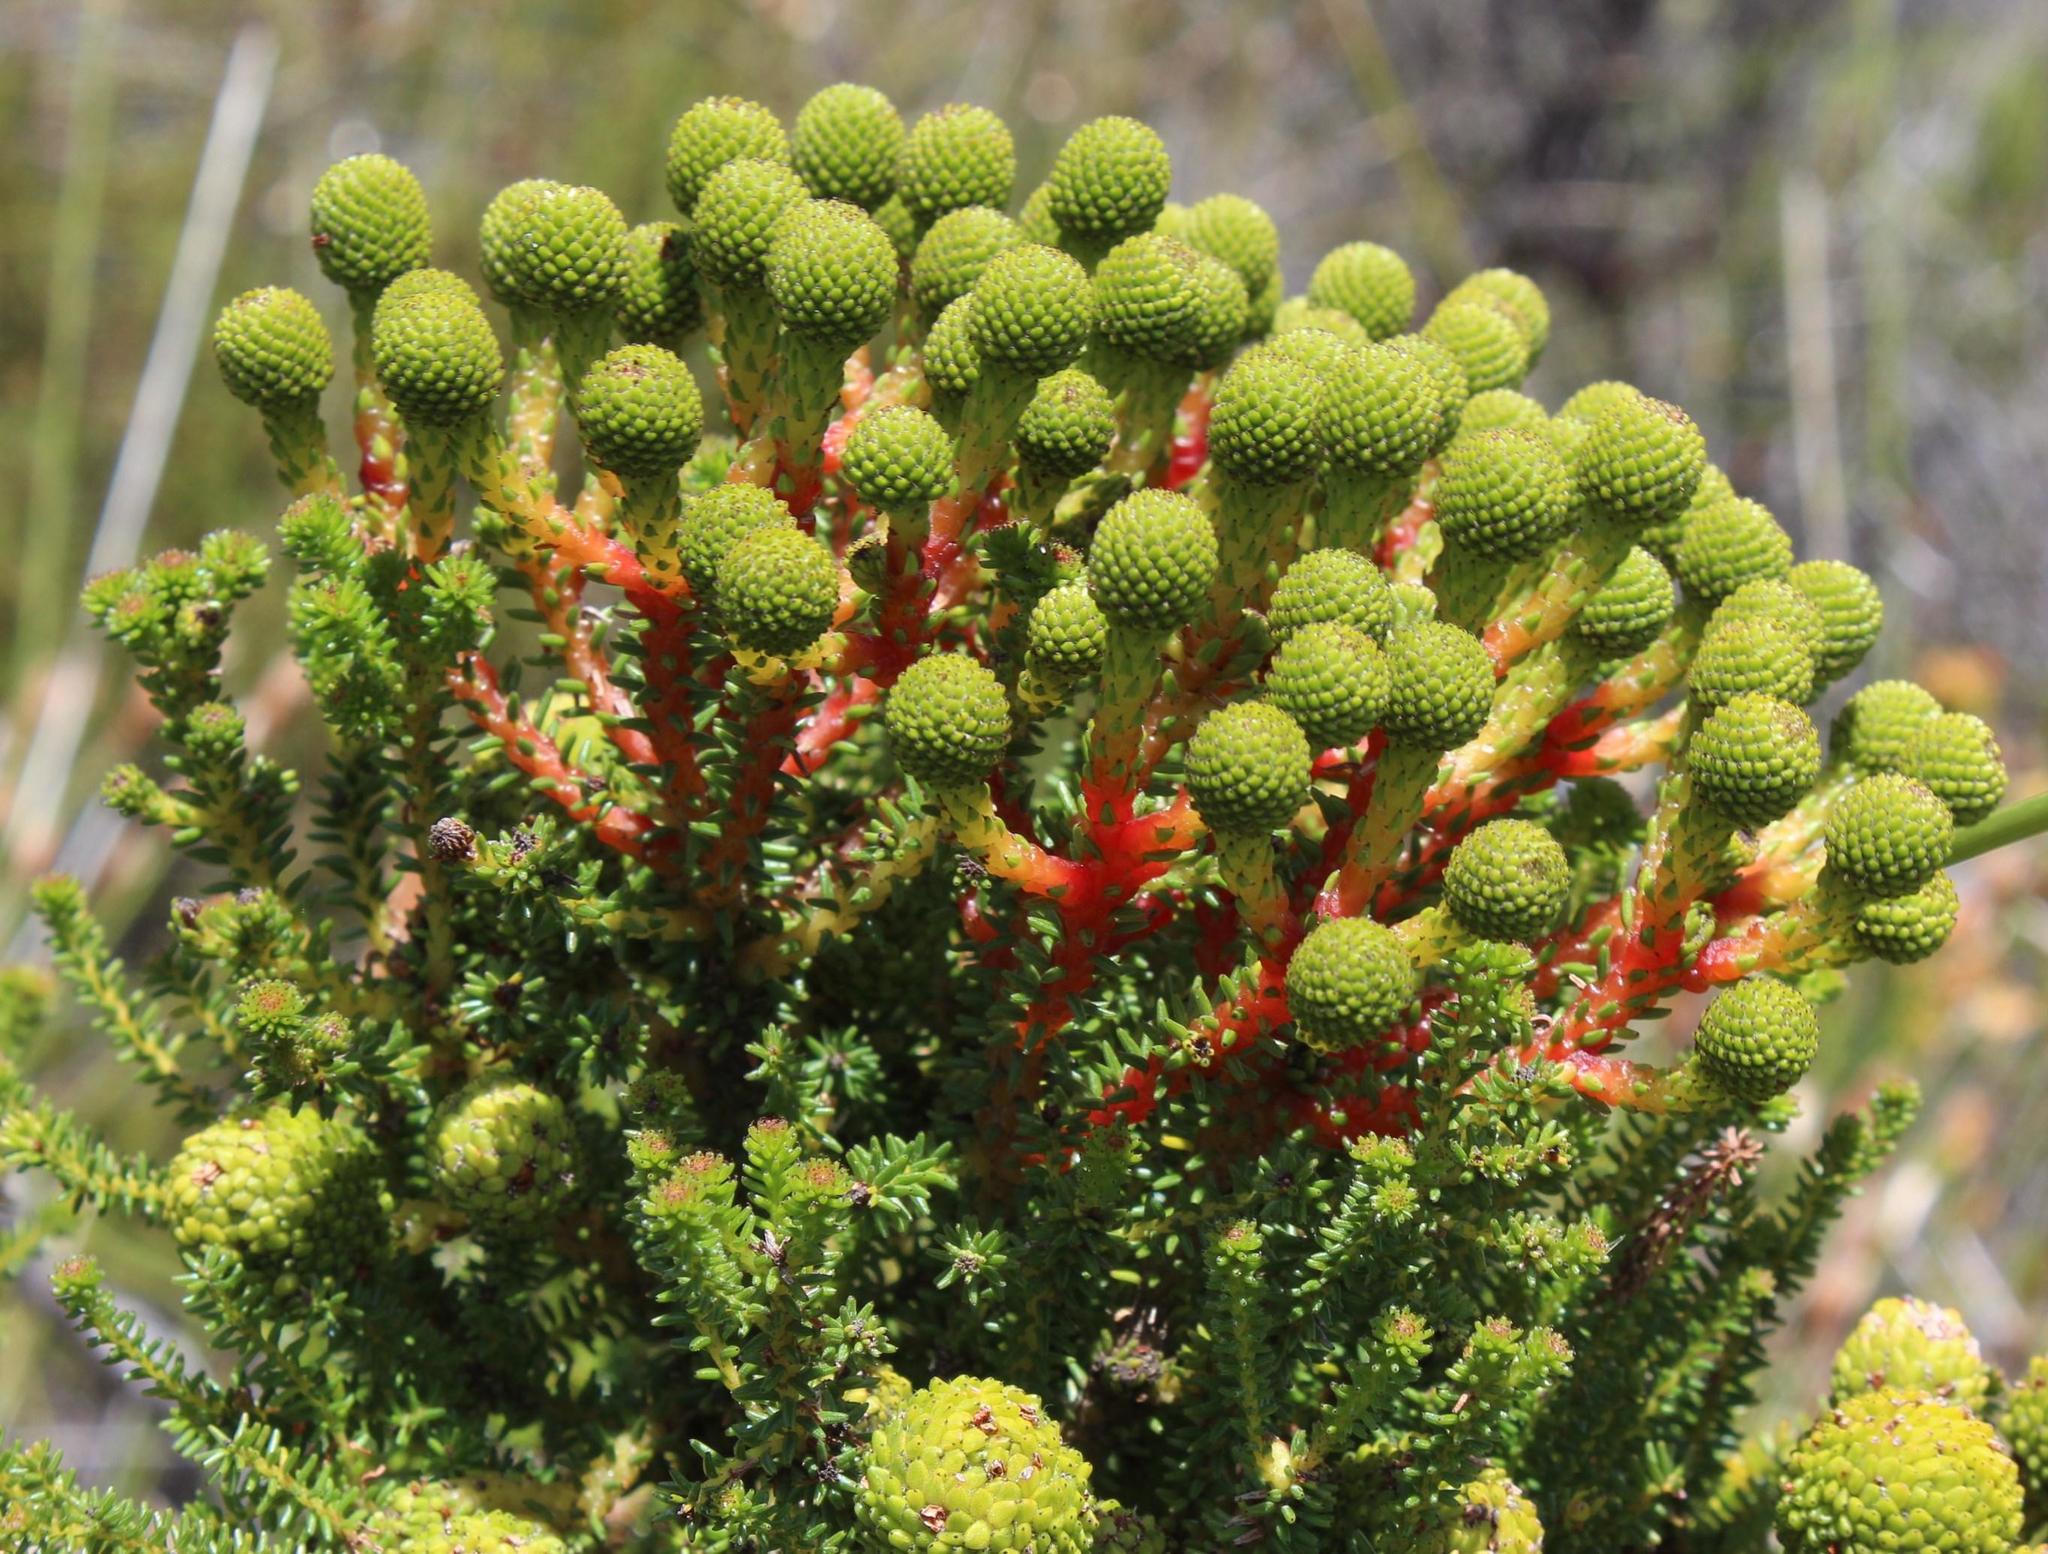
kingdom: Plantae
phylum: Tracheophyta
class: Magnoliopsida
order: Bruniales
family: Bruniaceae
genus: Berzelia
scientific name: Berzelia abrotanoides
